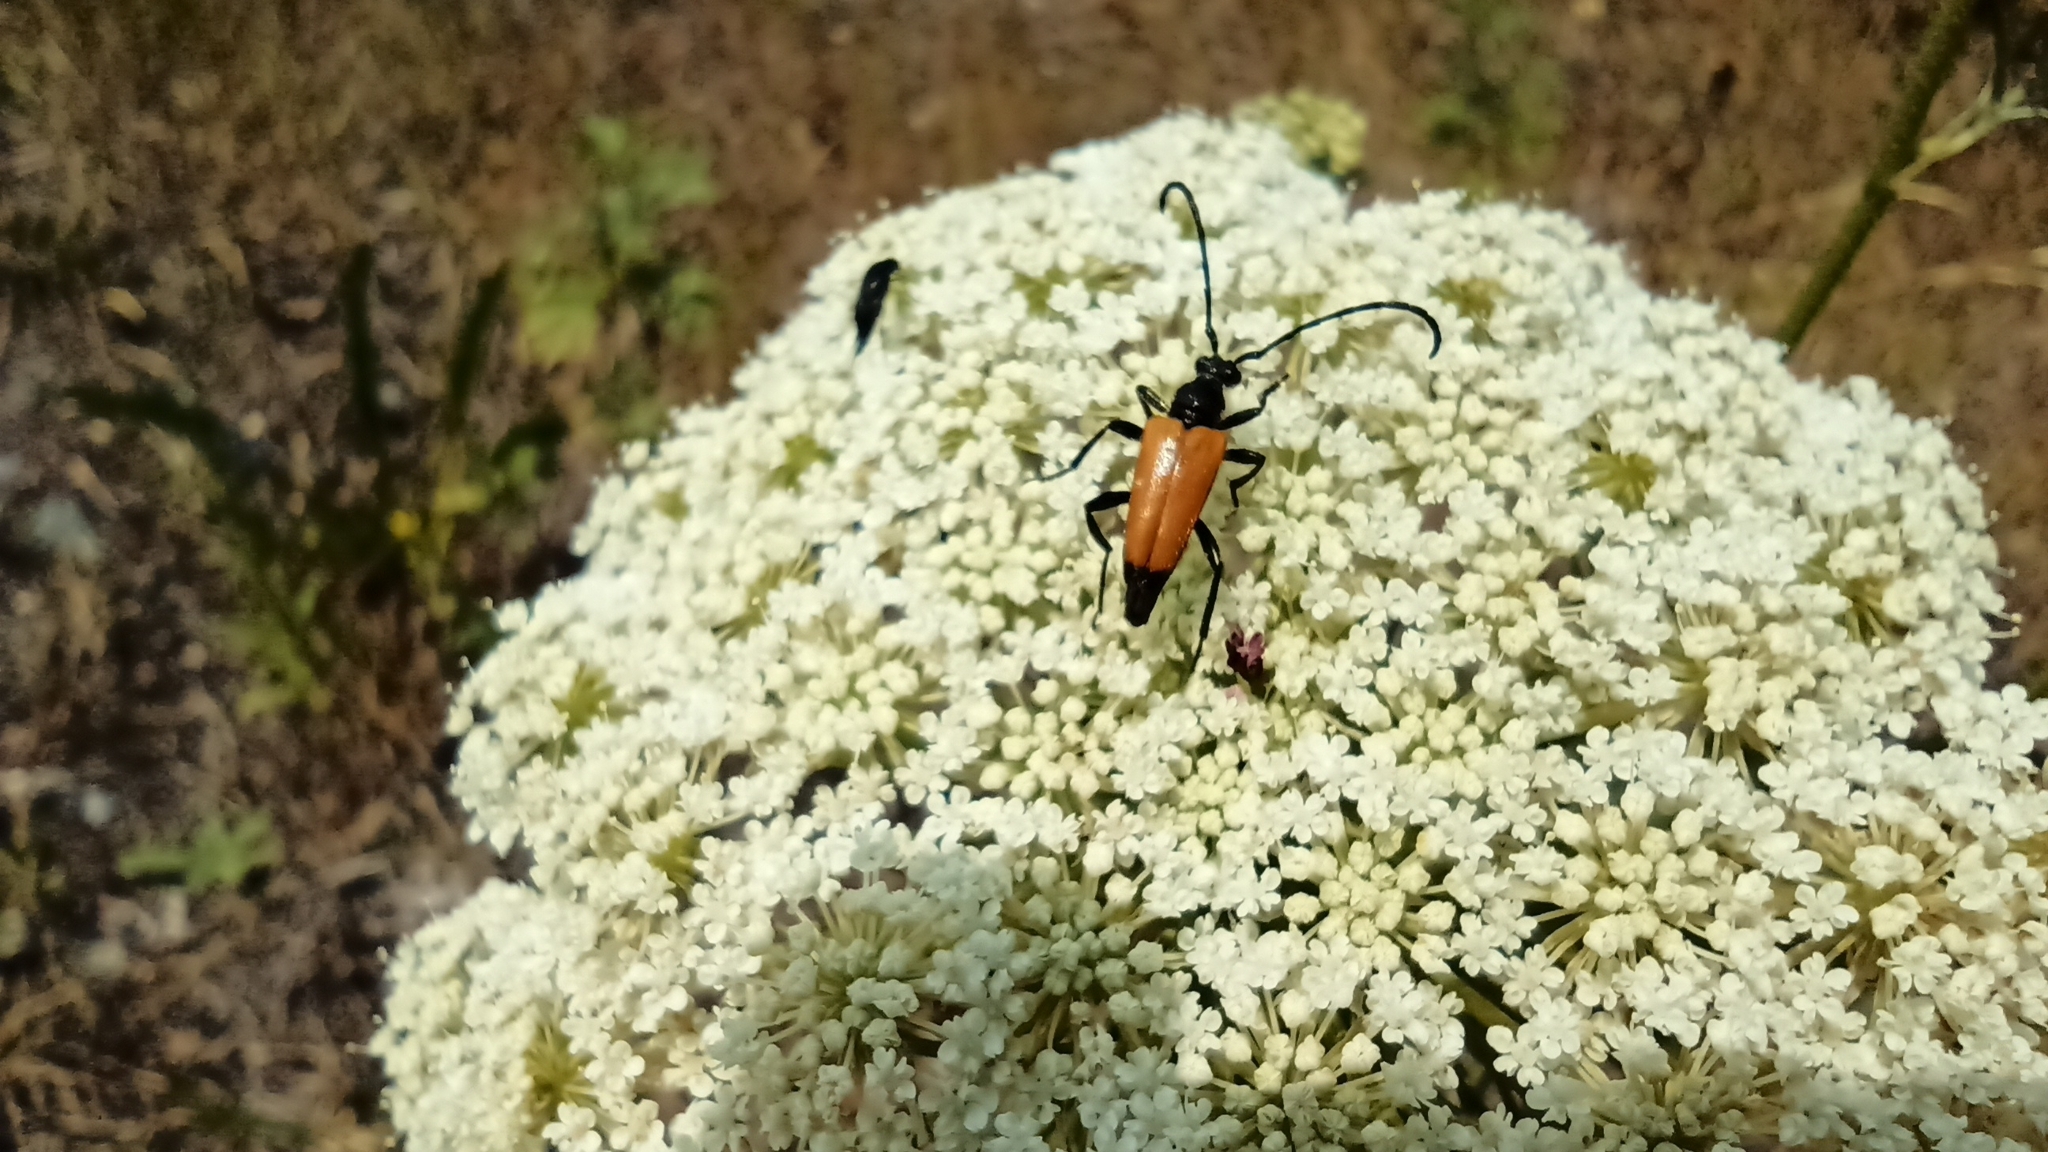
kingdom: Animalia
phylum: Arthropoda
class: Insecta
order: Coleoptera
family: Cerambycidae
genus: Paracorymbia
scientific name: Paracorymbia fulva
